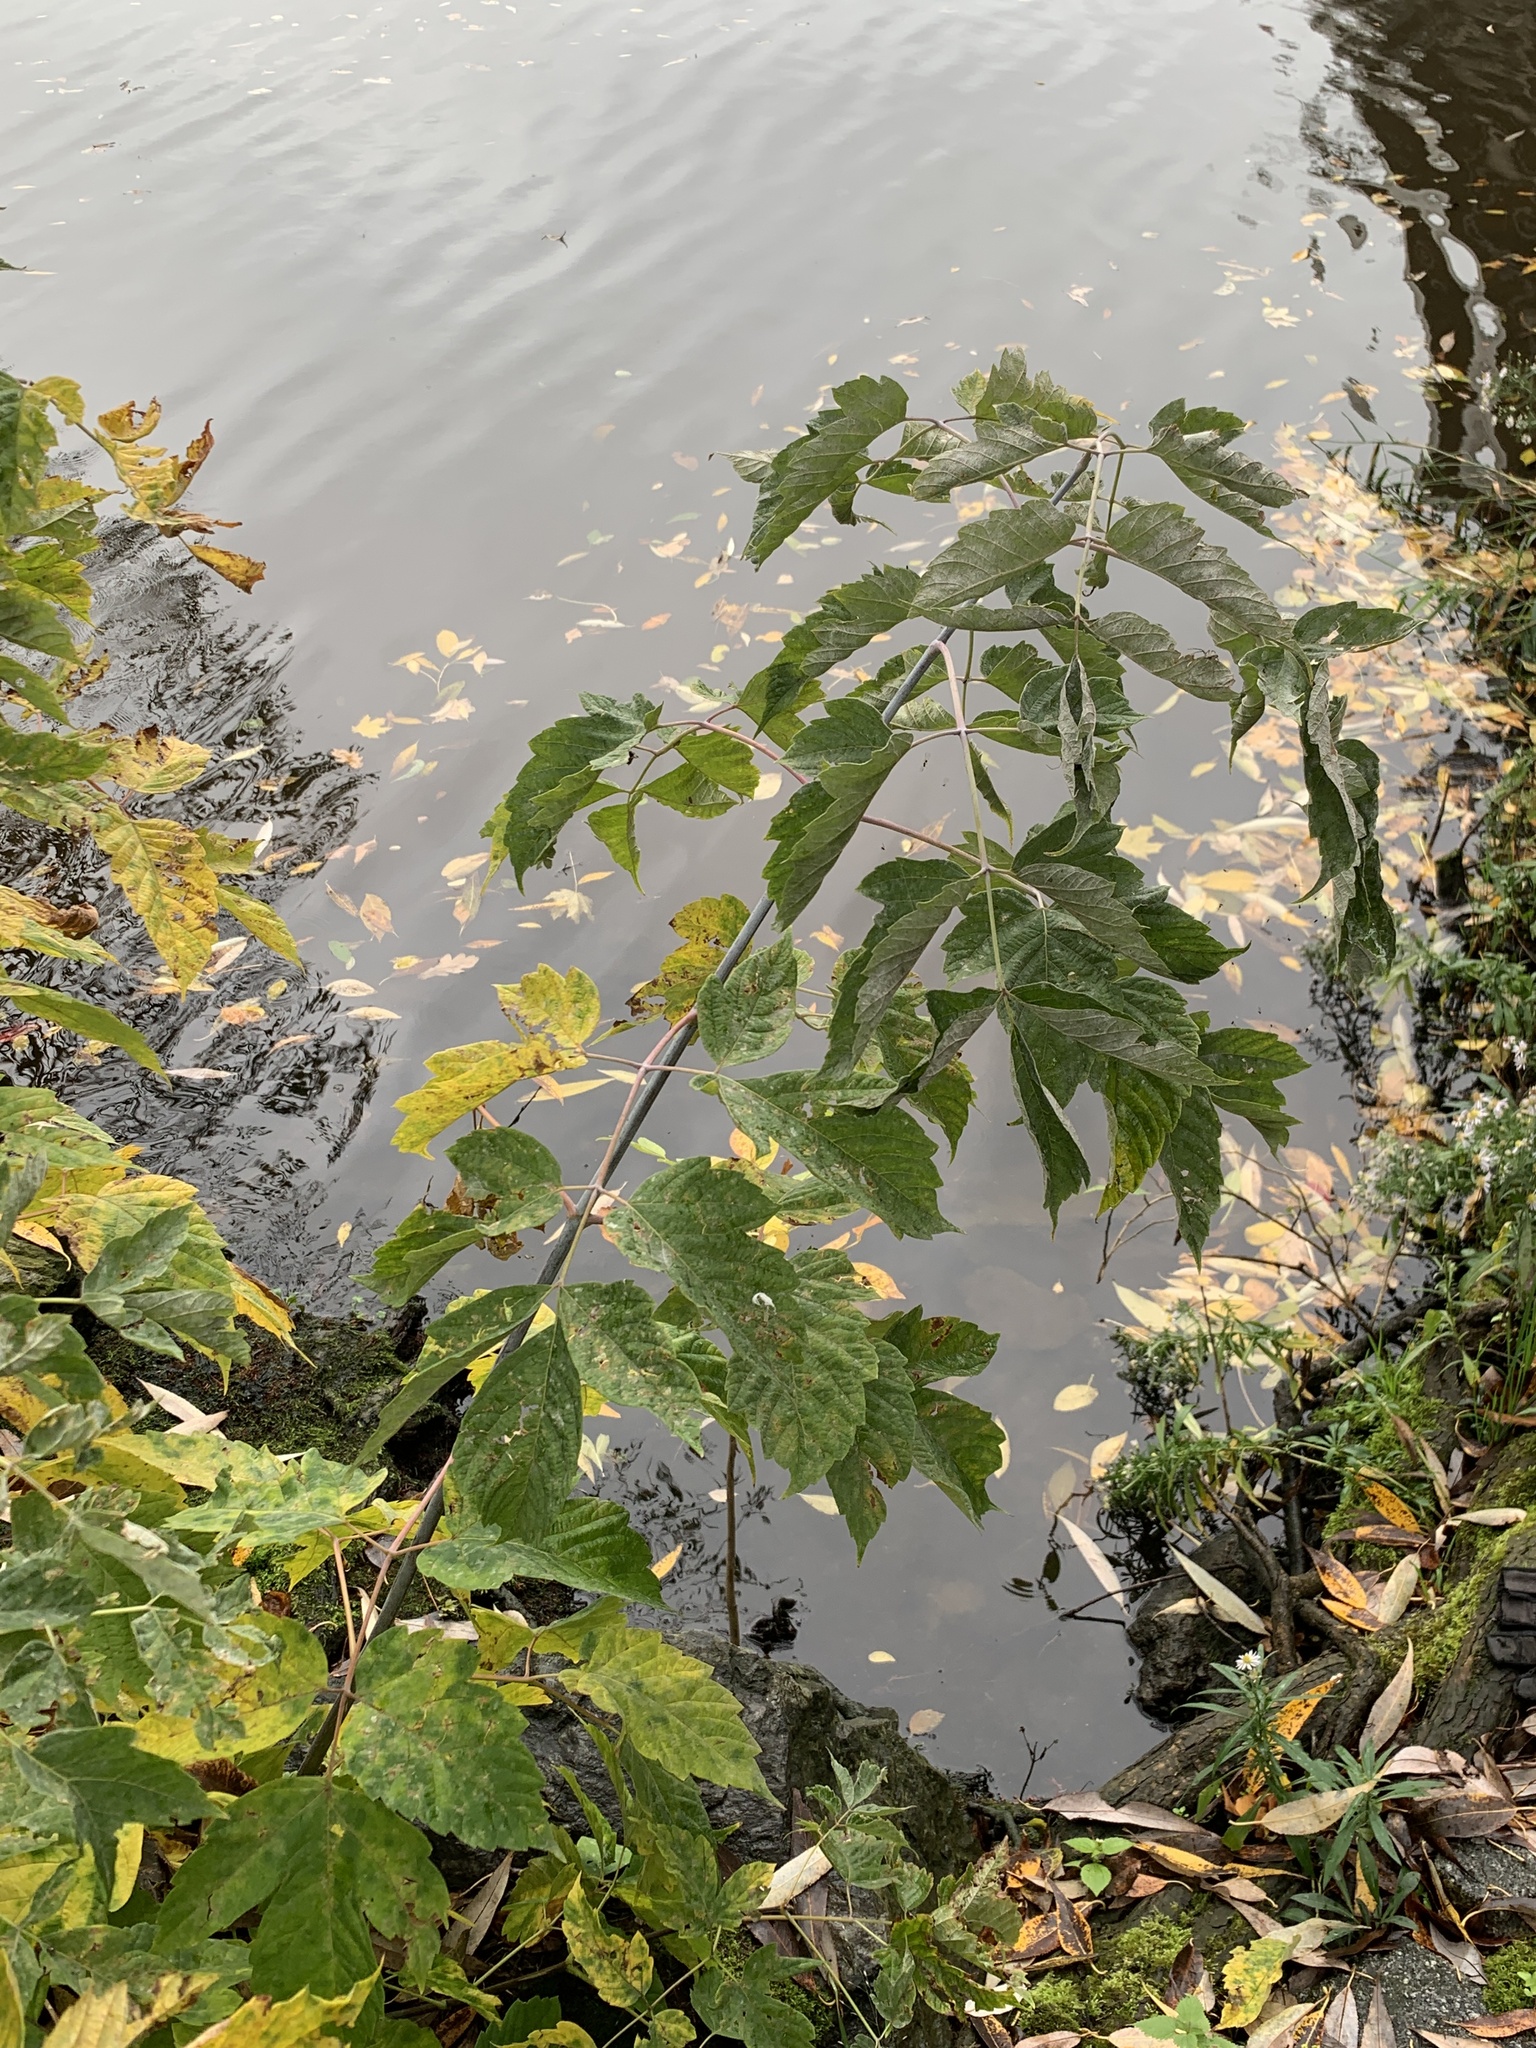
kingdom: Plantae
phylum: Tracheophyta
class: Magnoliopsida
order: Sapindales
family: Sapindaceae
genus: Acer
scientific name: Acer negundo
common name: Ashleaf maple
